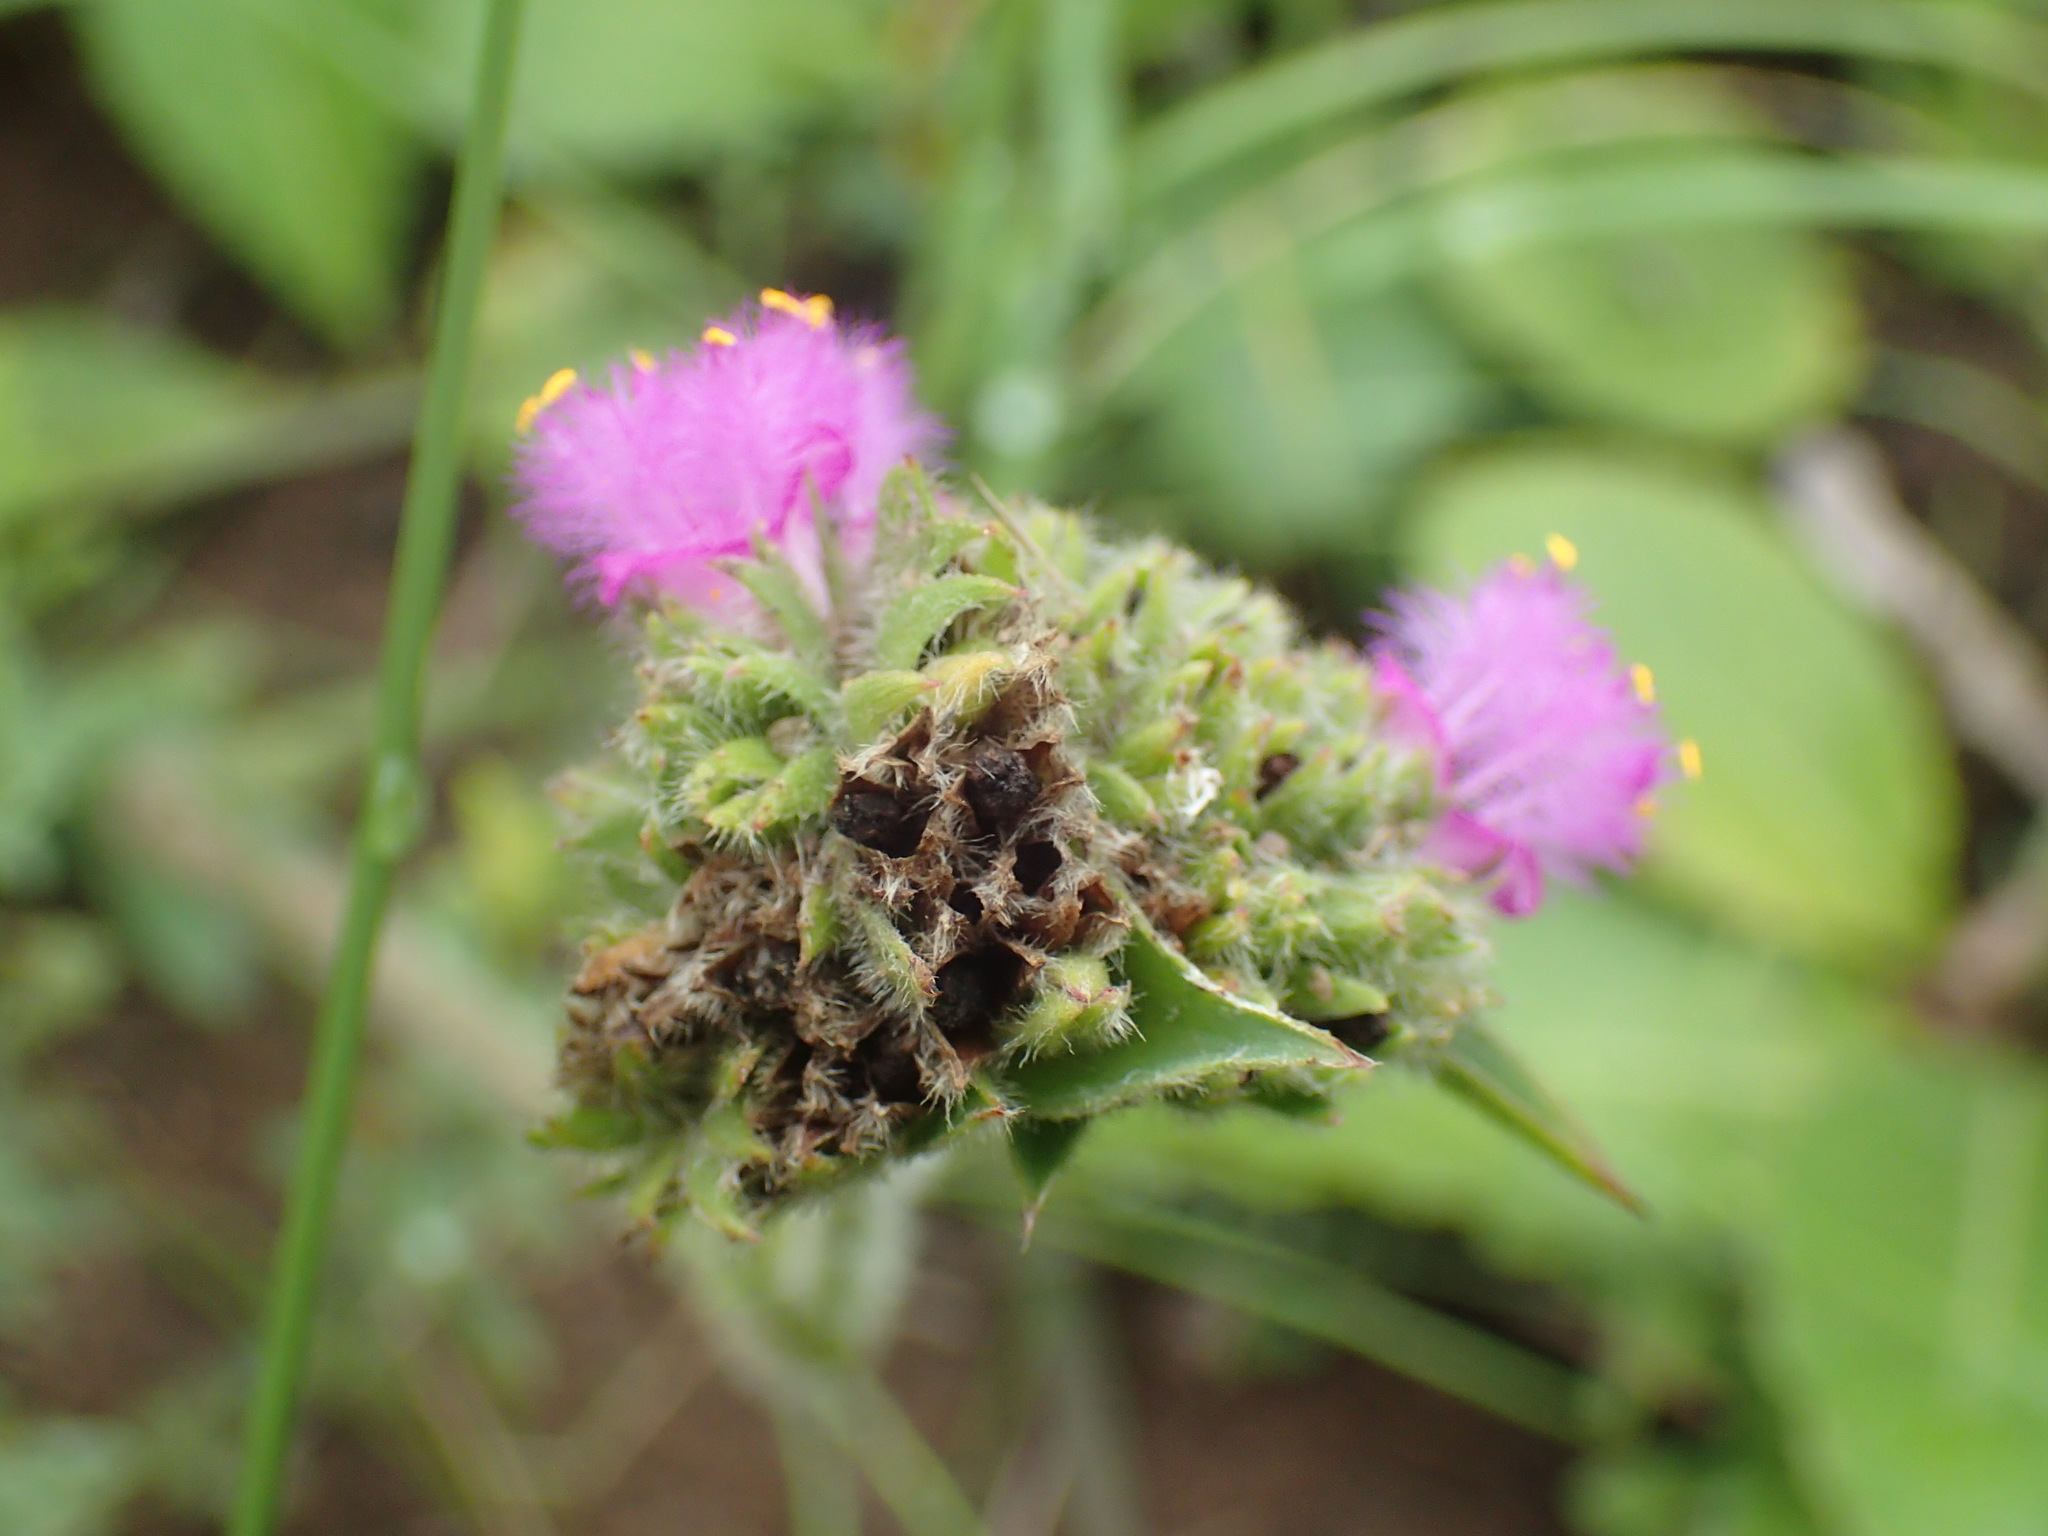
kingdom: Plantae
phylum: Tracheophyta
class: Liliopsida
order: Commelinales
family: Commelinaceae
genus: Cyanotis
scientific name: Cyanotis speciosa
